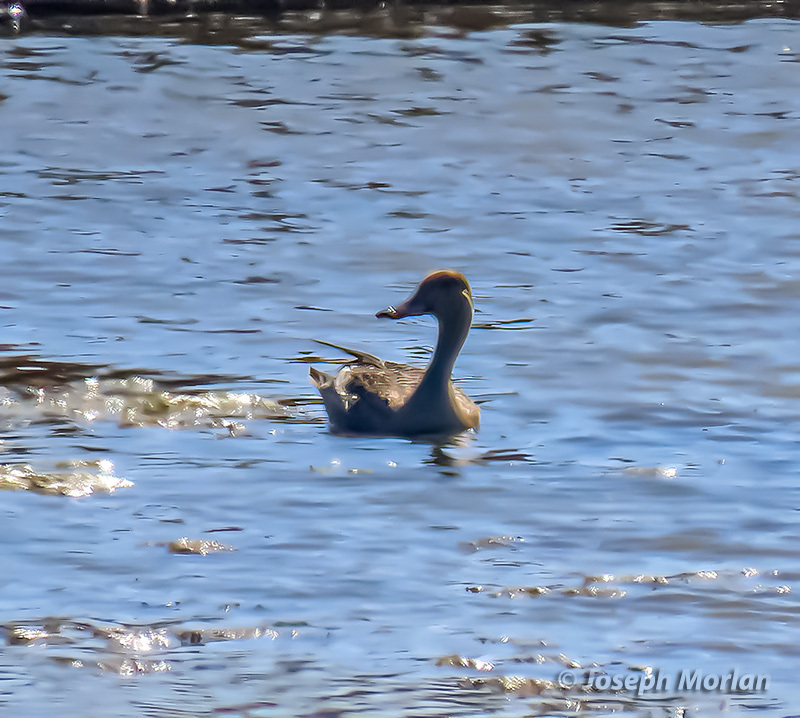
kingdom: Animalia
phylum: Chordata
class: Aves
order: Anseriformes
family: Anatidae
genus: Anas
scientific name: Anas acuta
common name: Northern pintail
